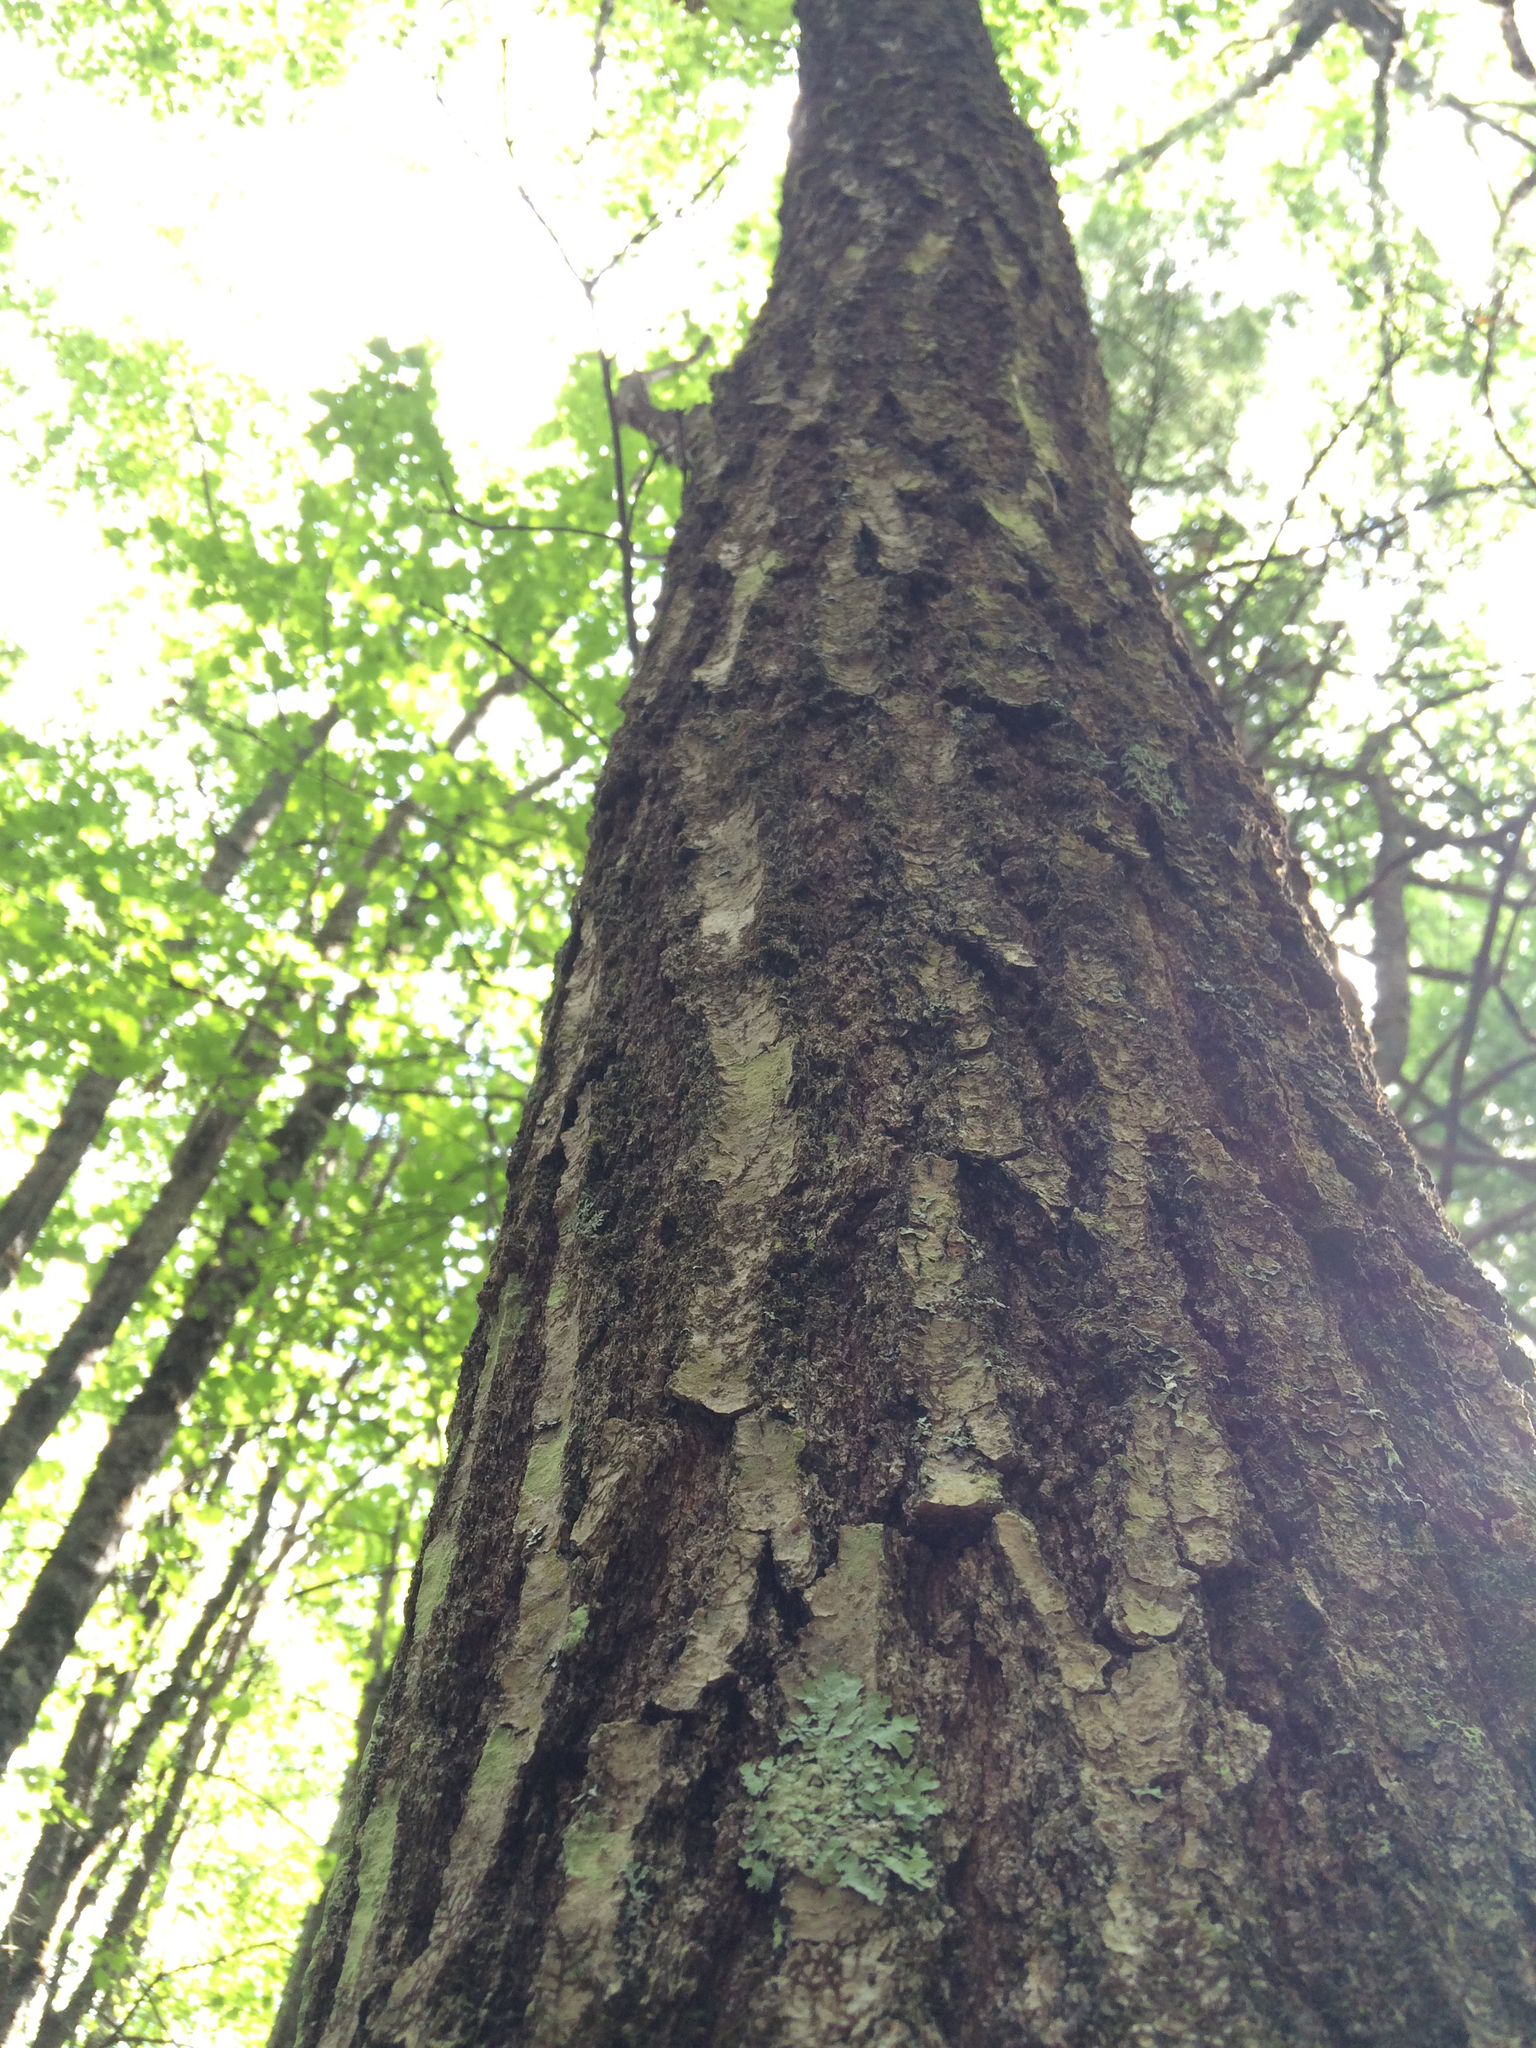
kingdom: Plantae
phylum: Tracheophyta
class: Magnoliopsida
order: Fagales
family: Fagaceae
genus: Quercus
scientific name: Quercus rubra
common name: Red oak
